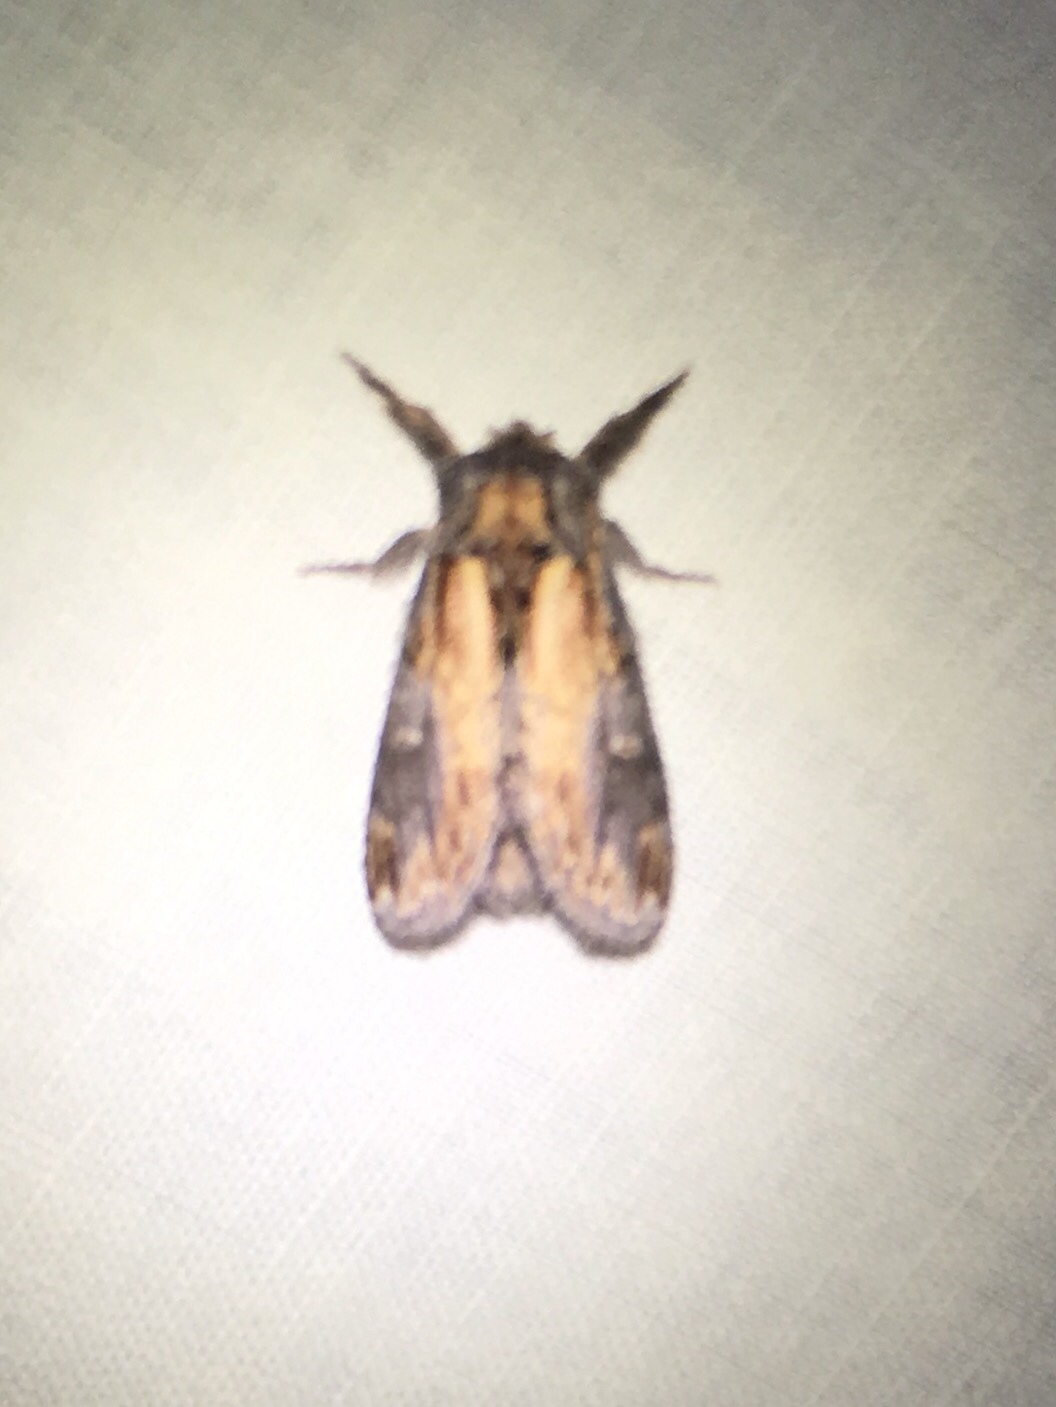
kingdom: Animalia
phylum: Arthropoda
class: Insecta
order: Lepidoptera
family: Notodontidae
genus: Notodonta
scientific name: Notodonta scitipennis
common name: Finned-willow prominent moth
